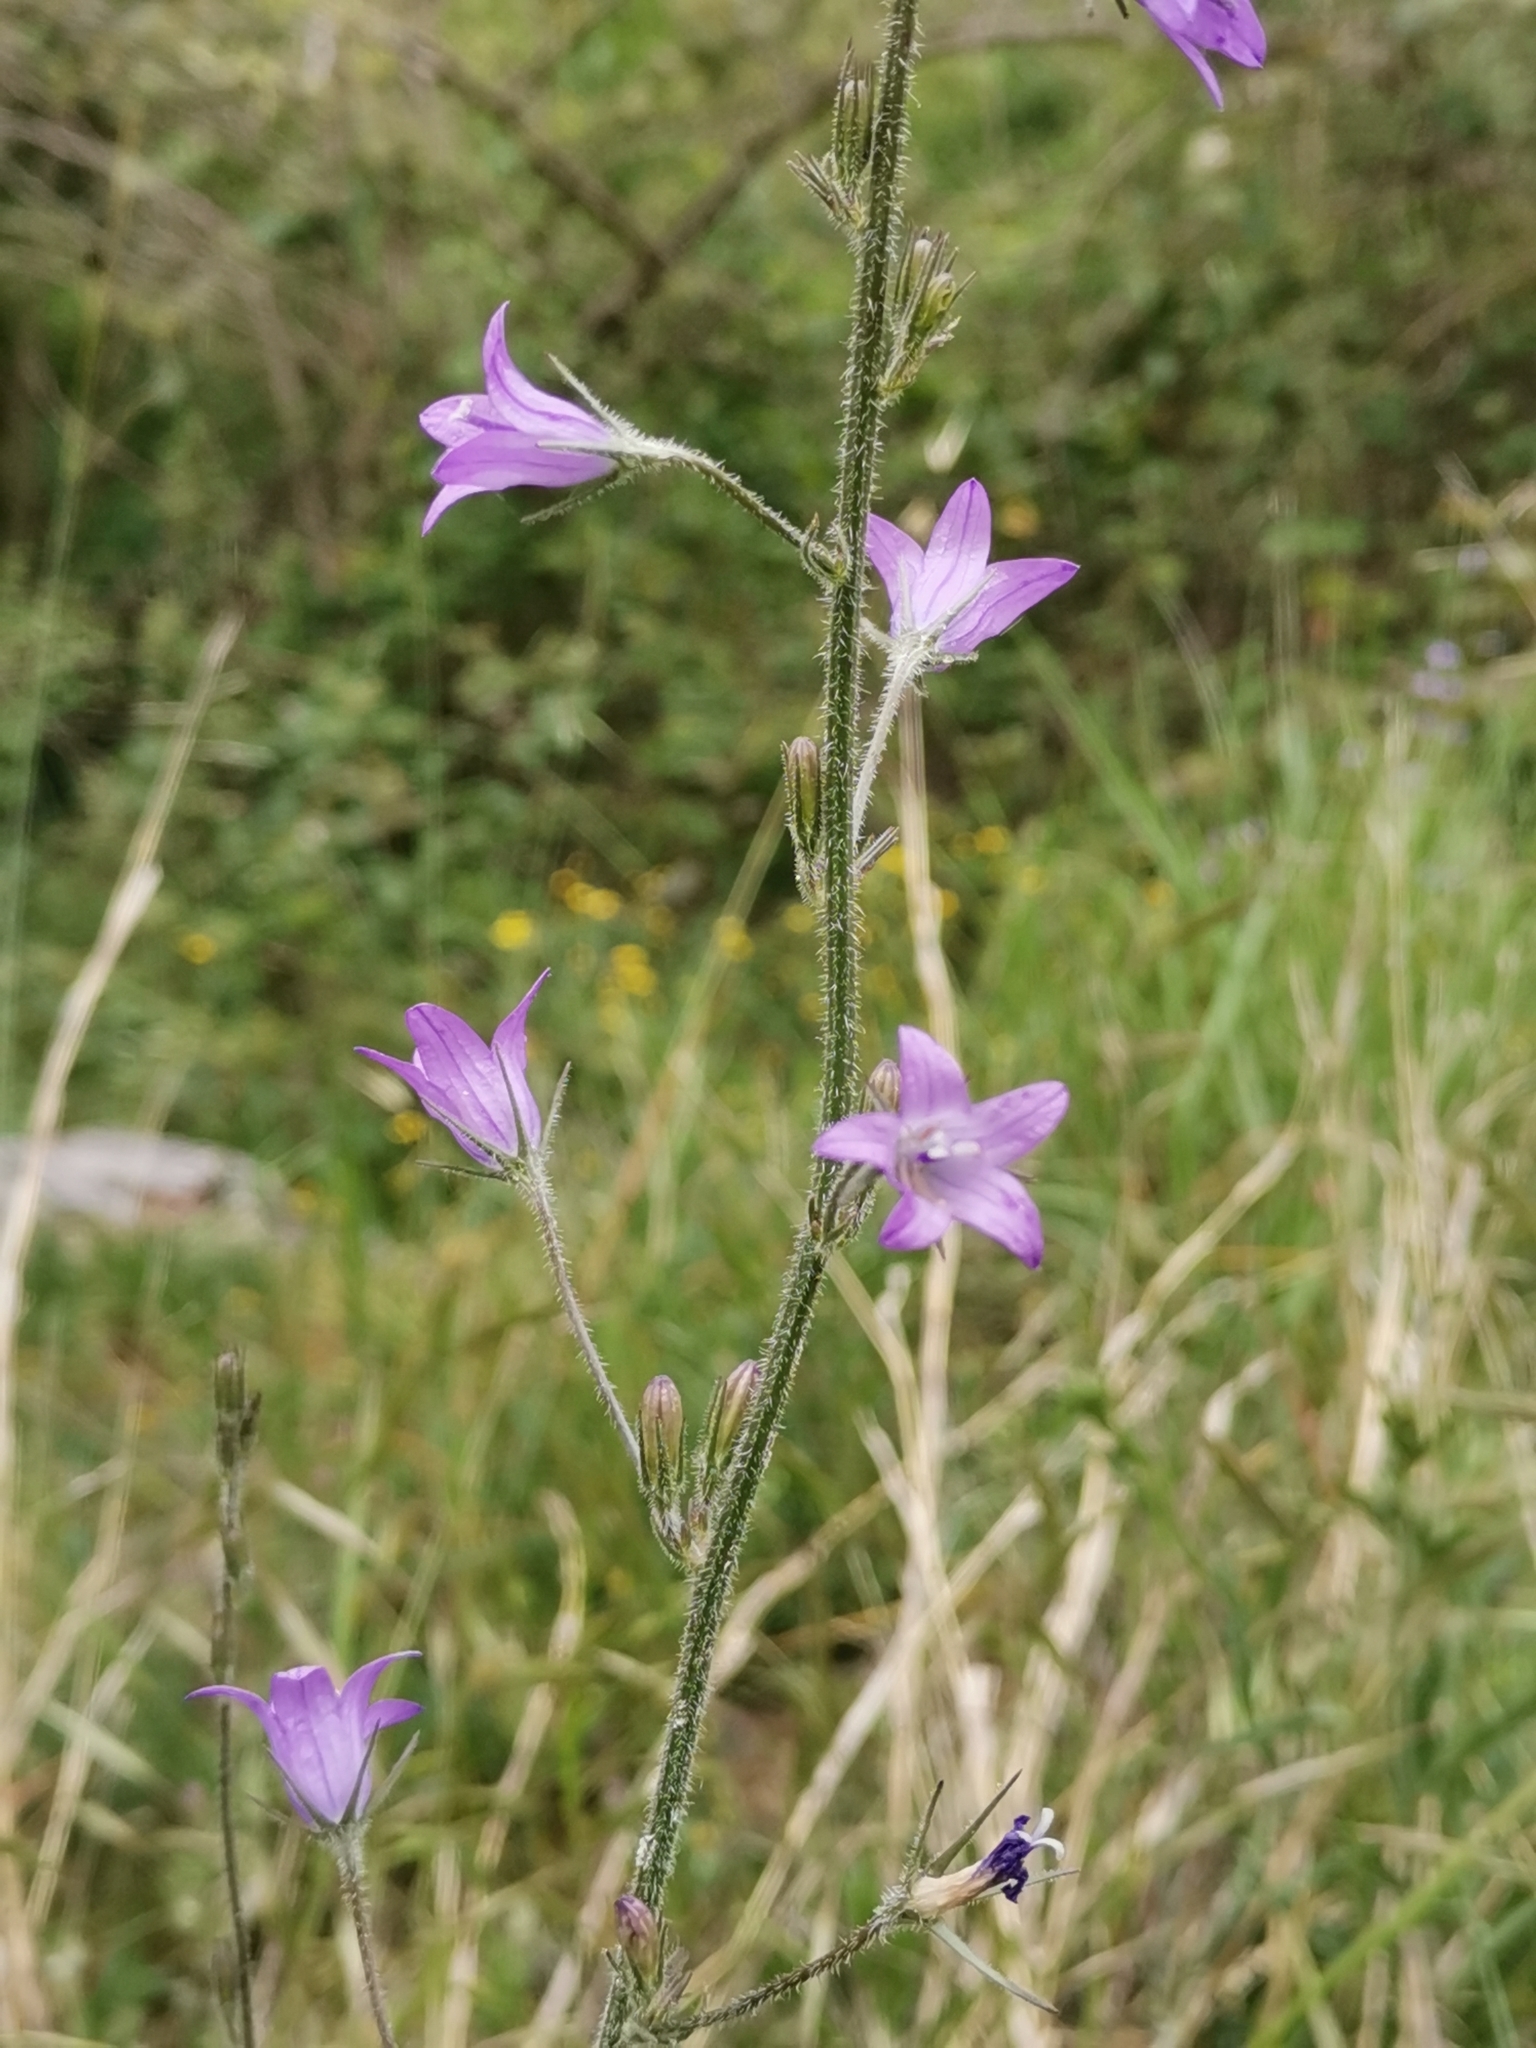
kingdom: Plantae
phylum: Tracheophyta
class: Magnoliopsida
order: Asterales
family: Campanulaceae
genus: Campanula
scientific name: Campanula rapunculus
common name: Rampion bellflower
